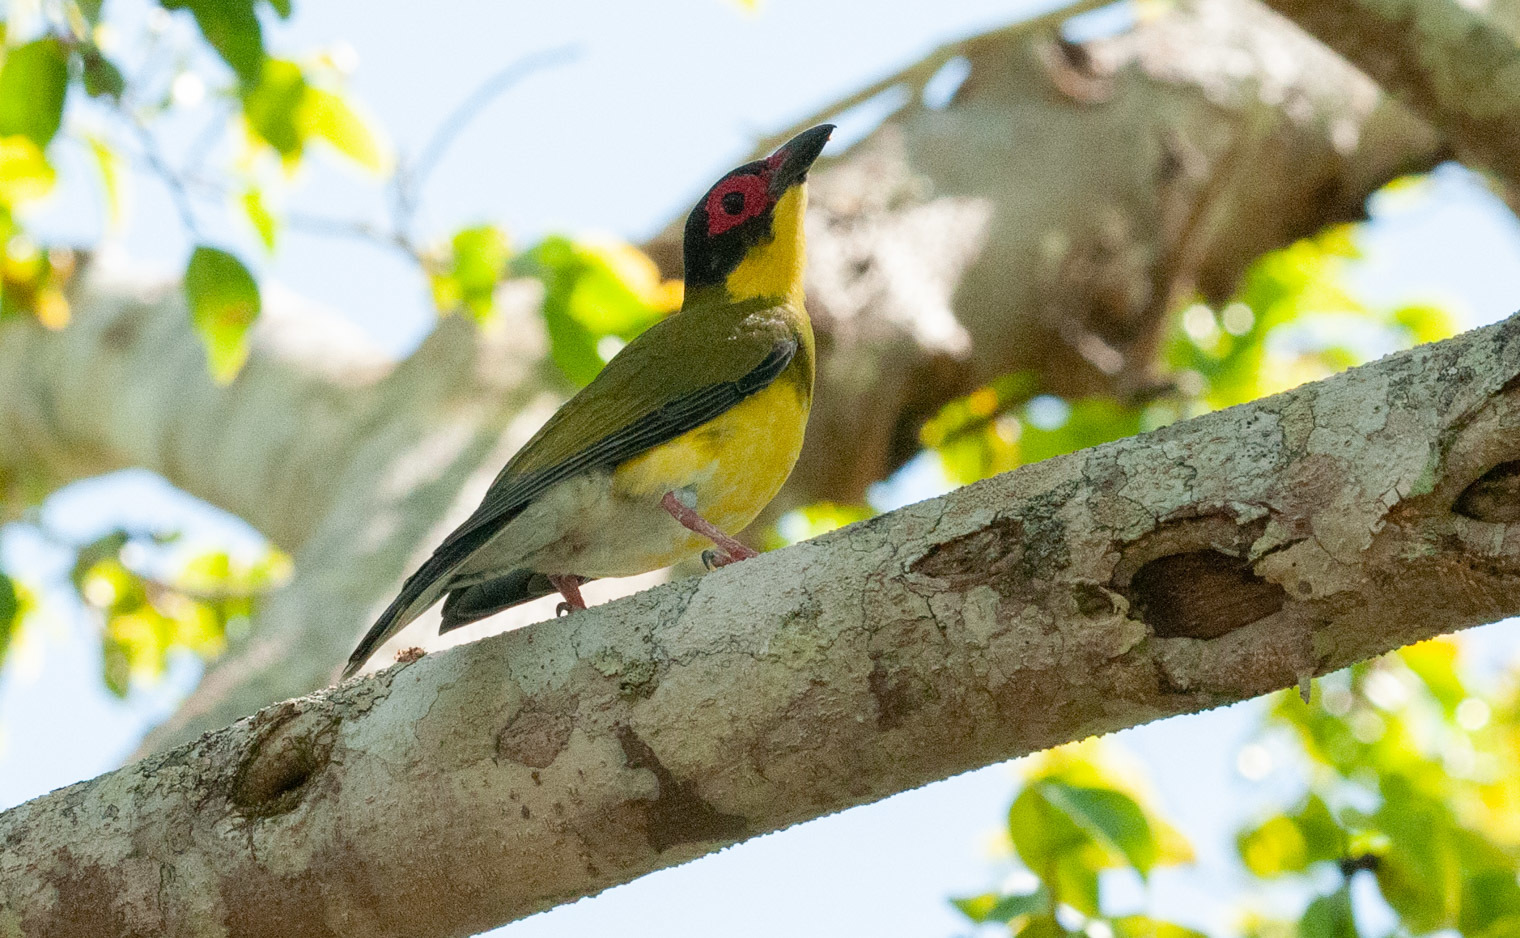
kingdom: Animalia
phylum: Chordata
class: Aves
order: Passeriformes
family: Oriolidae
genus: Sphecotheres
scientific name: Sphecotheres vieilloti
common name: Australasian figbird
